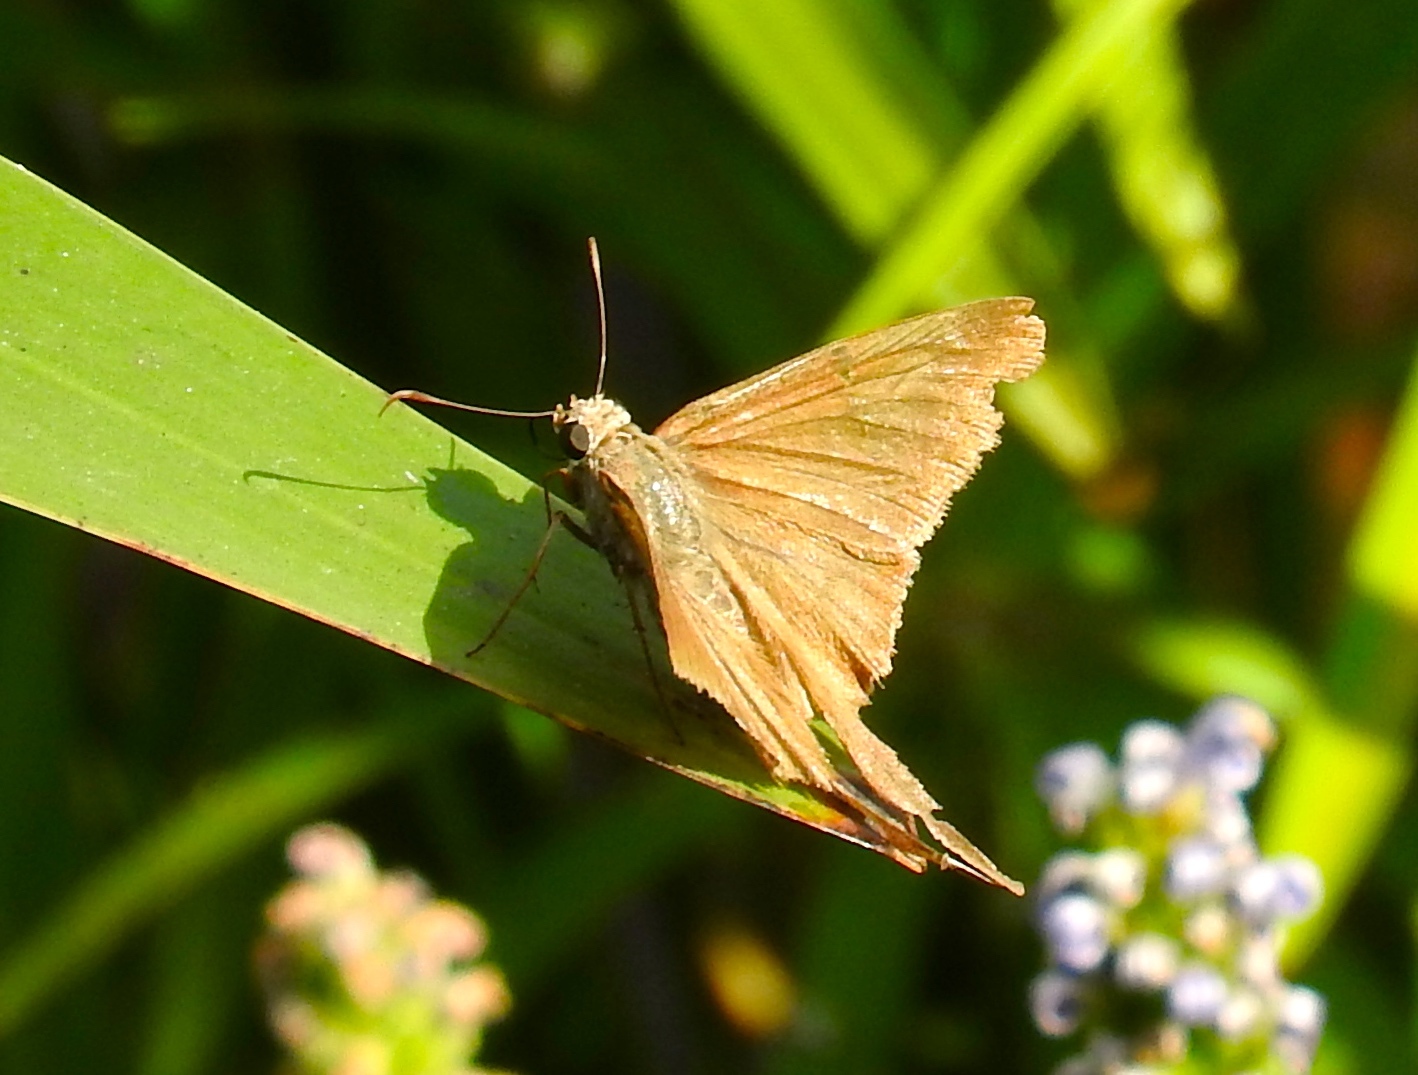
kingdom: Animalia
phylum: Arthropoda
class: Insecta
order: Lepidoptera
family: Hesperiidae
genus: Urbanus
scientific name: Urbanus simplicius
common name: Plain longtail
